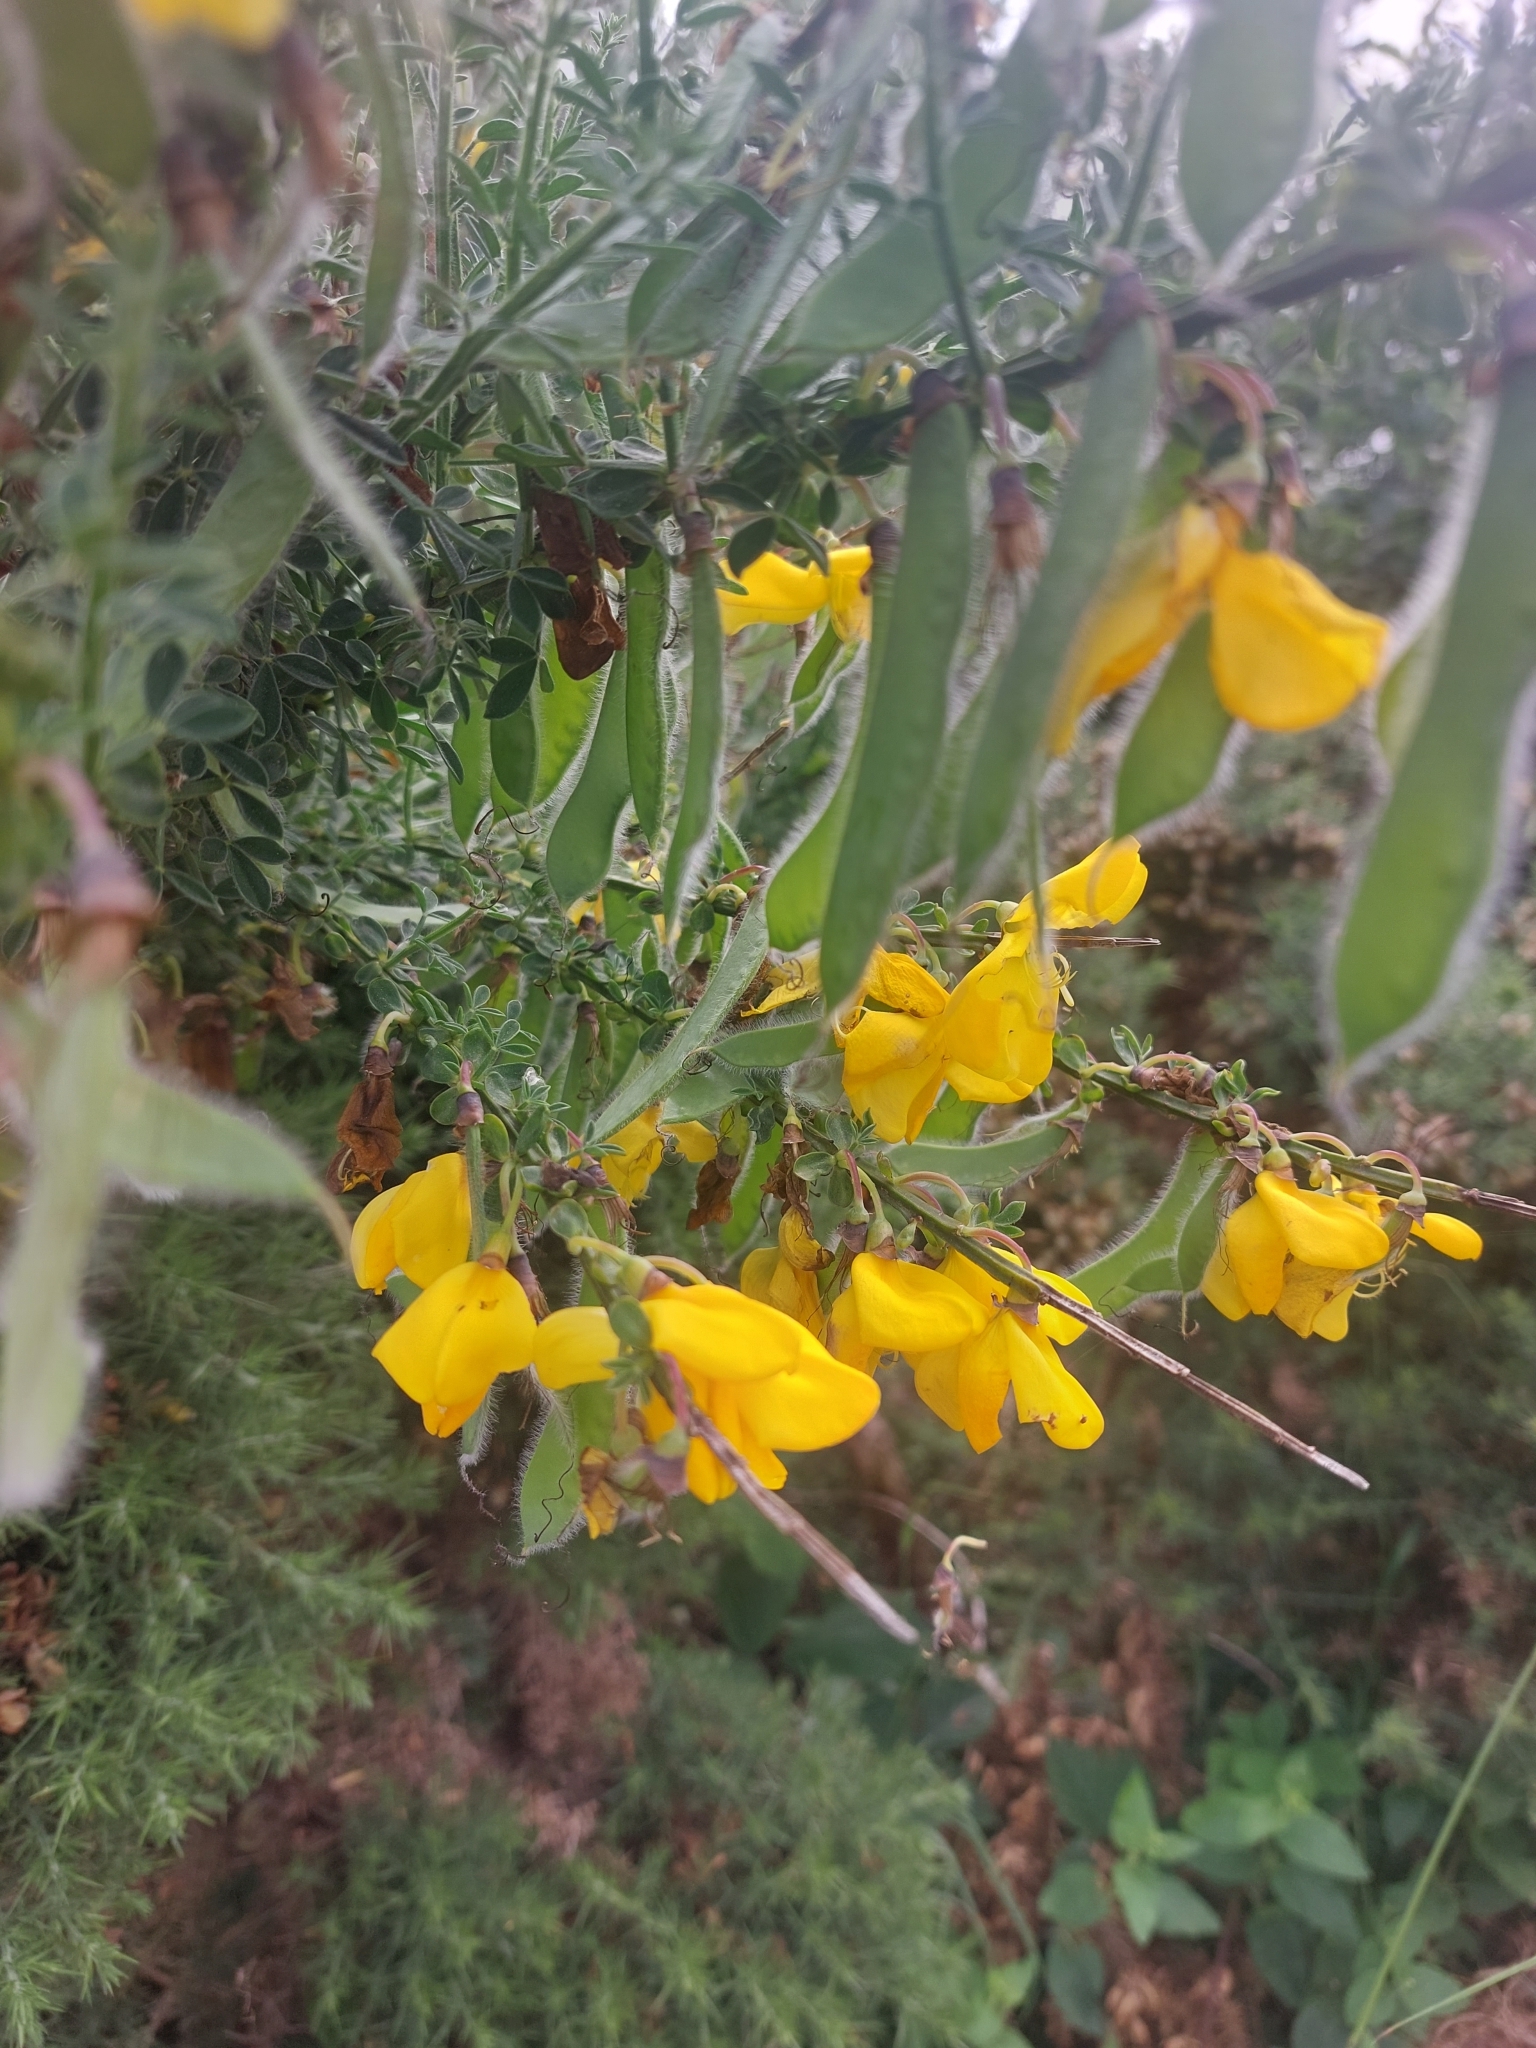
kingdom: Plantae
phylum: Tracheophyta
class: Magnoliopsida
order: Fabales
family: Fabaceae
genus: Cytisus
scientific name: Cytisus scoparius
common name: Scotch broom
